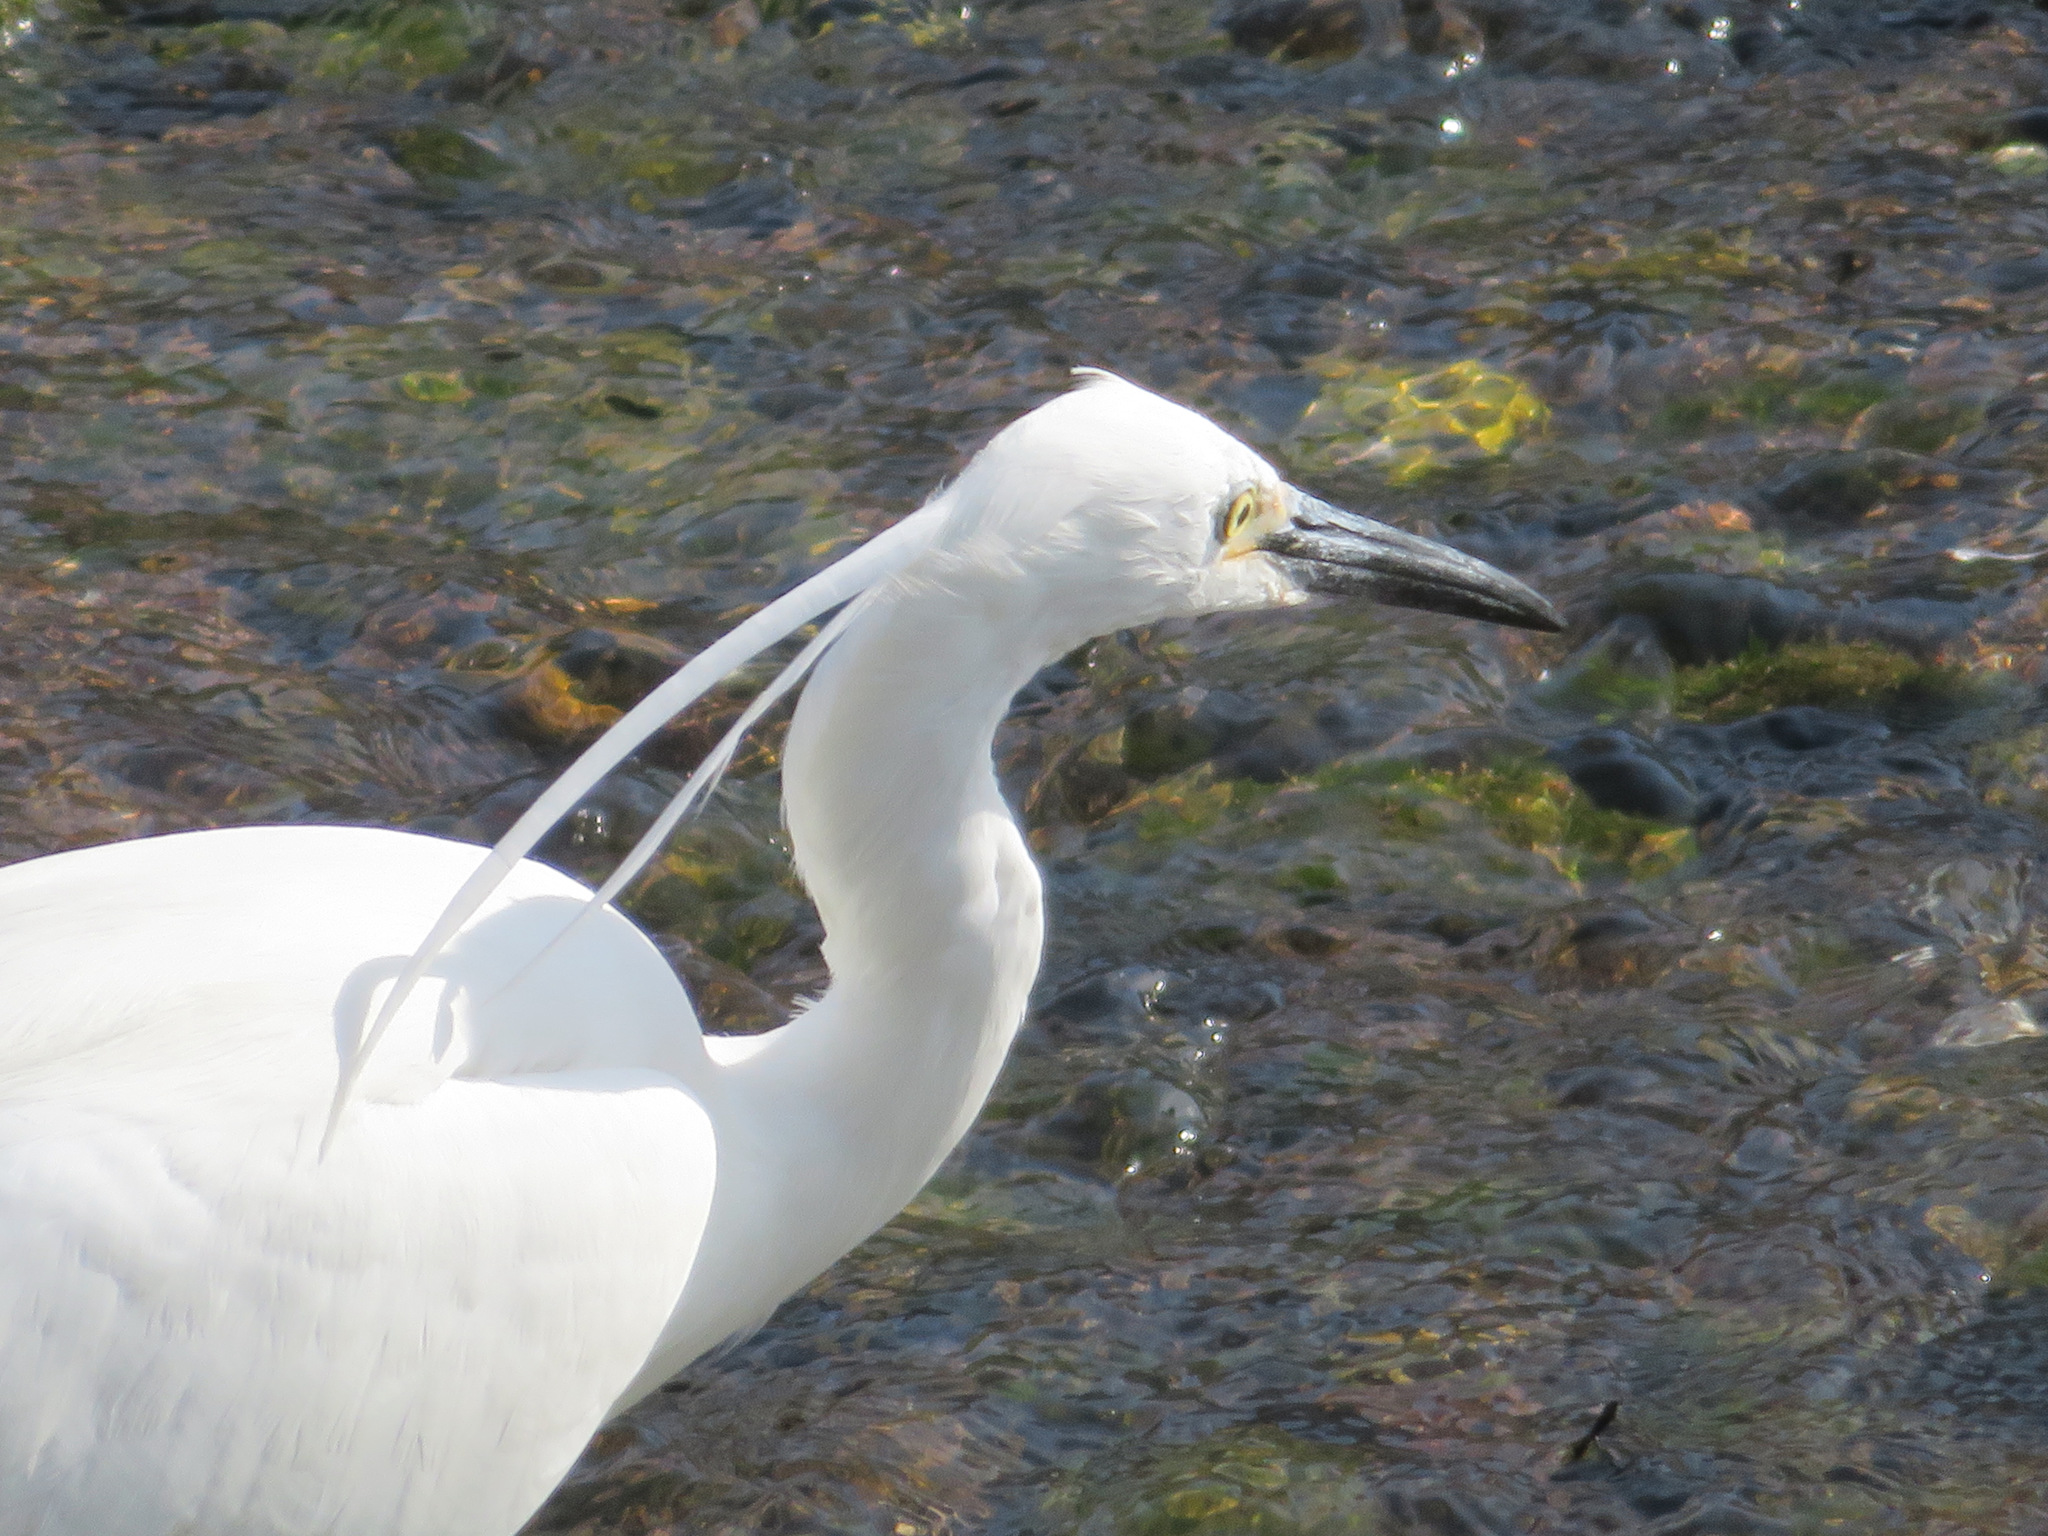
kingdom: Animalia
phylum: Chordata
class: Aves
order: Pelecaniformes
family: Ardeidae
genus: Egretta
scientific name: Egretta garzetta
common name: Little egret
